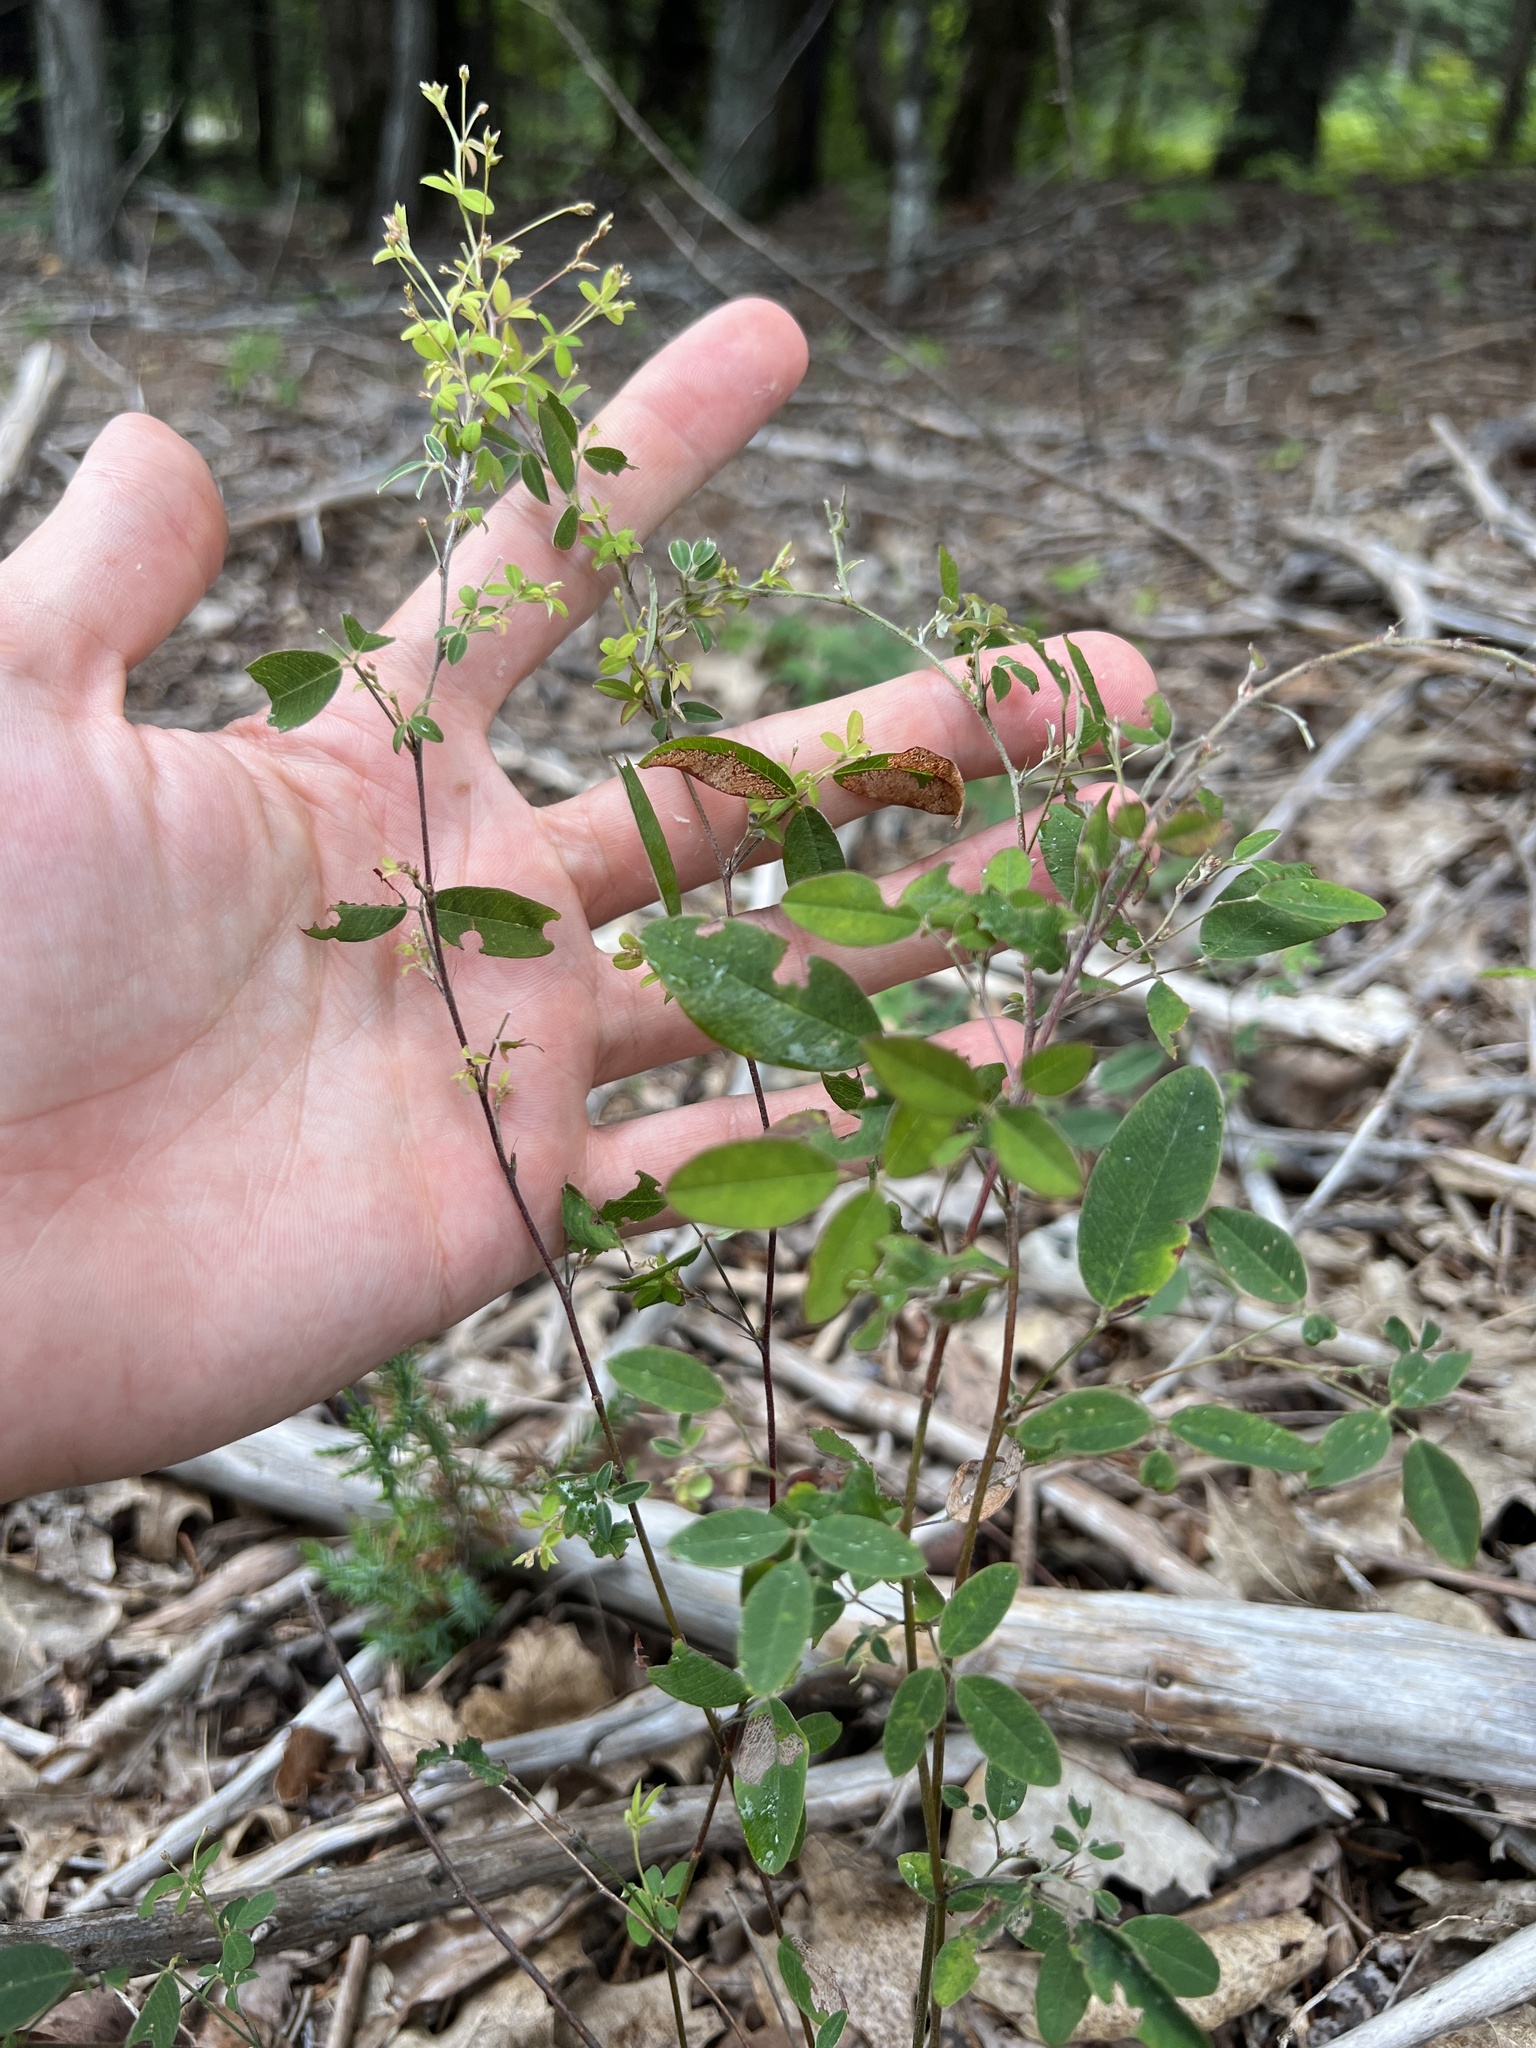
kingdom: Plantae
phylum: Tracheophyta
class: Magnoliopsida
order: Fabales
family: Fabaceae
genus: Lespedeza
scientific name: Lespedeza
